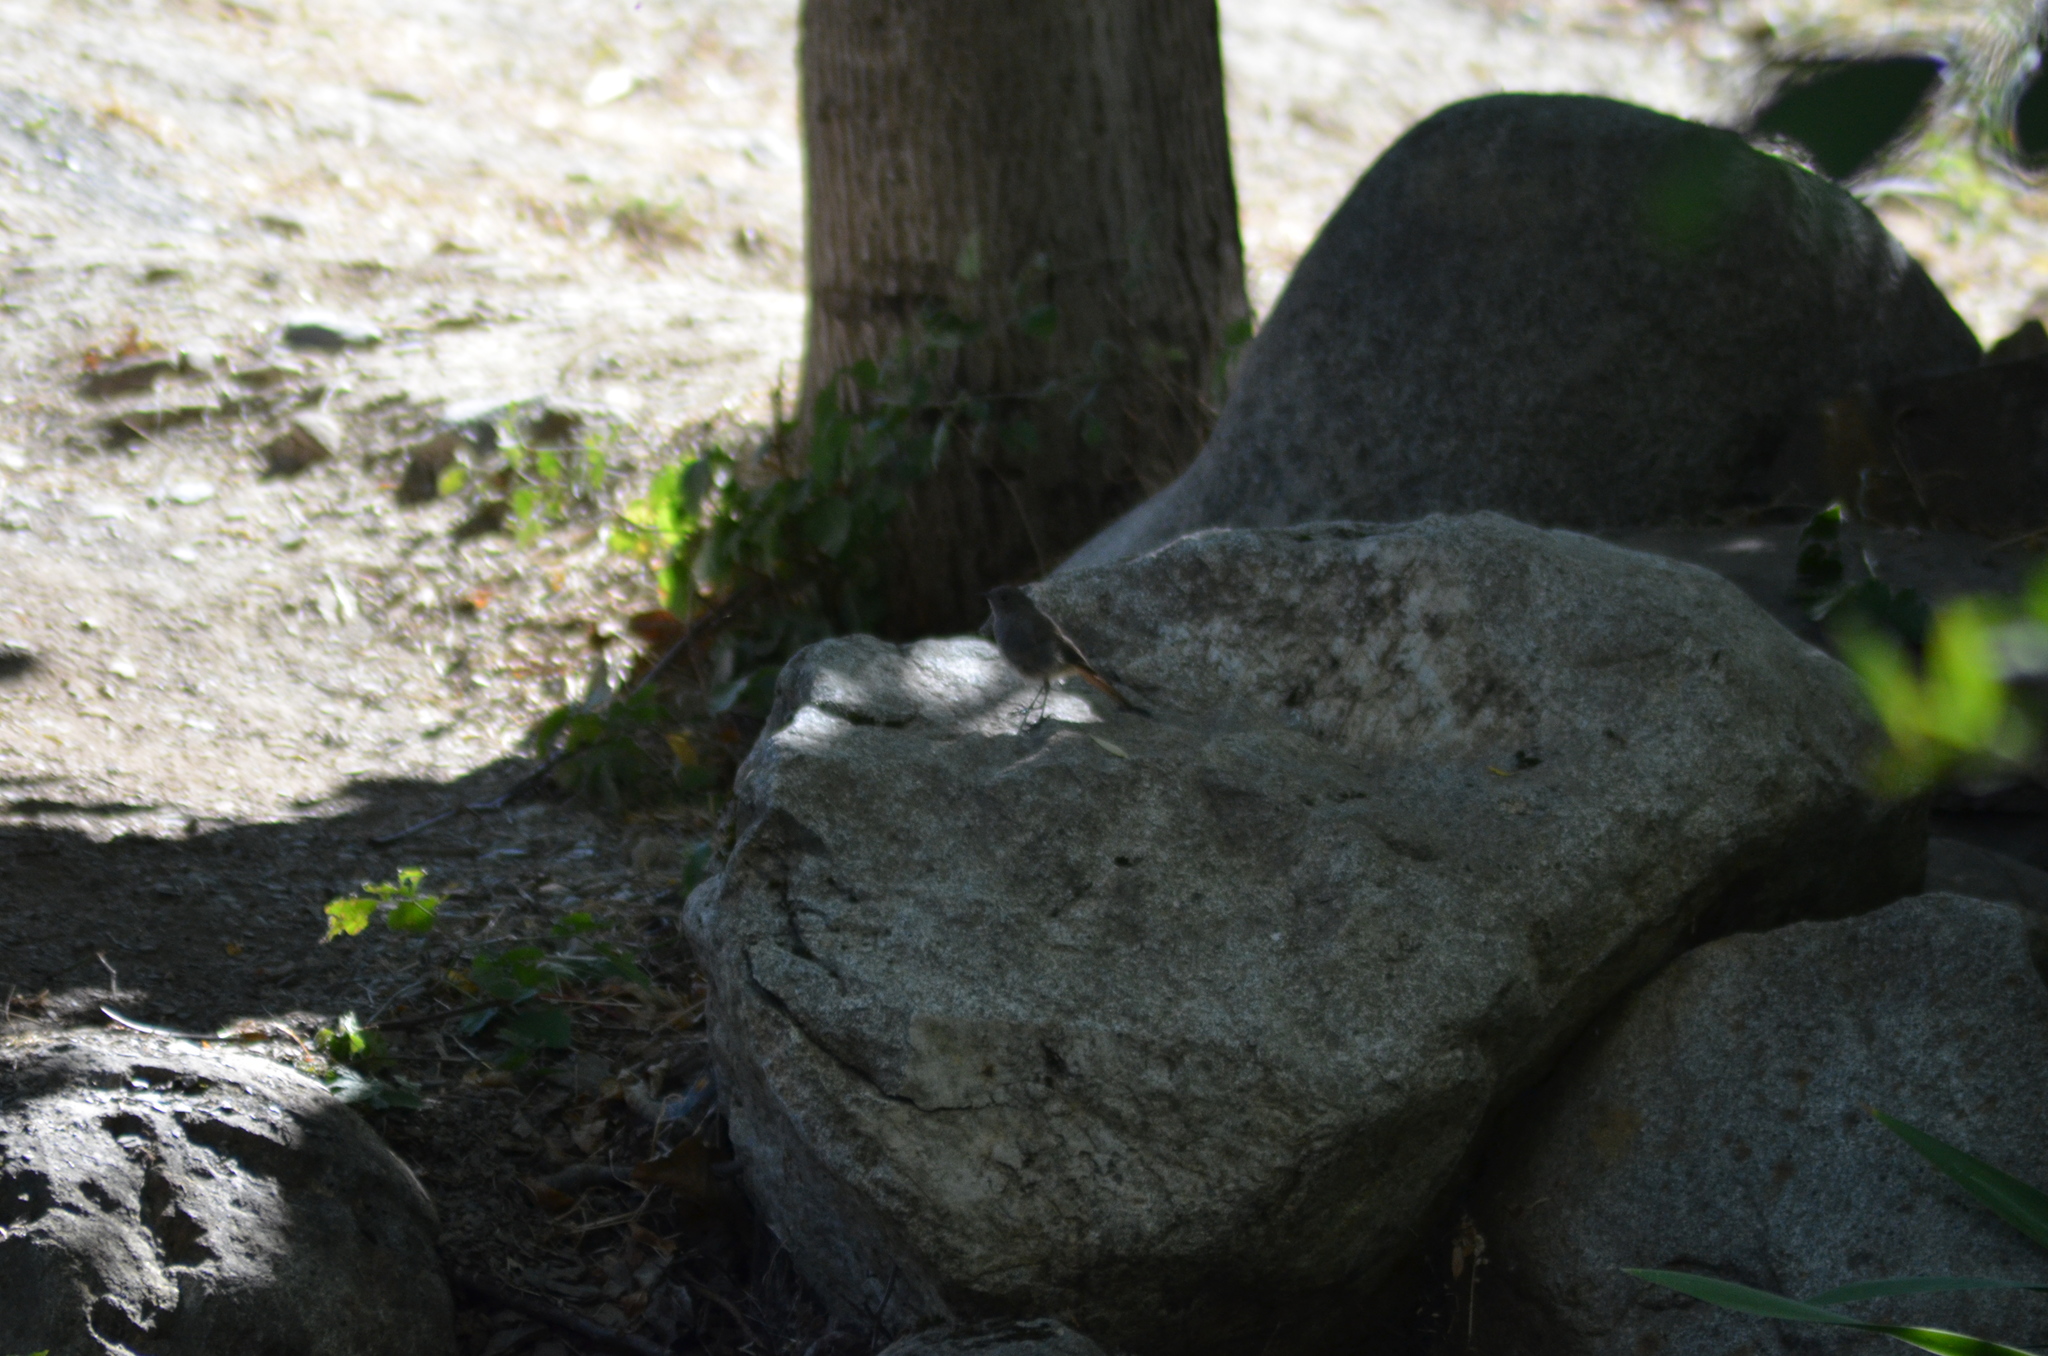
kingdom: Animalia
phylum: Chordata
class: Aves
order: Passeriformes
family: Muscicapidae
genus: Phoenicurus
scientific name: Phoenicurus ochruros
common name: Black redstart
